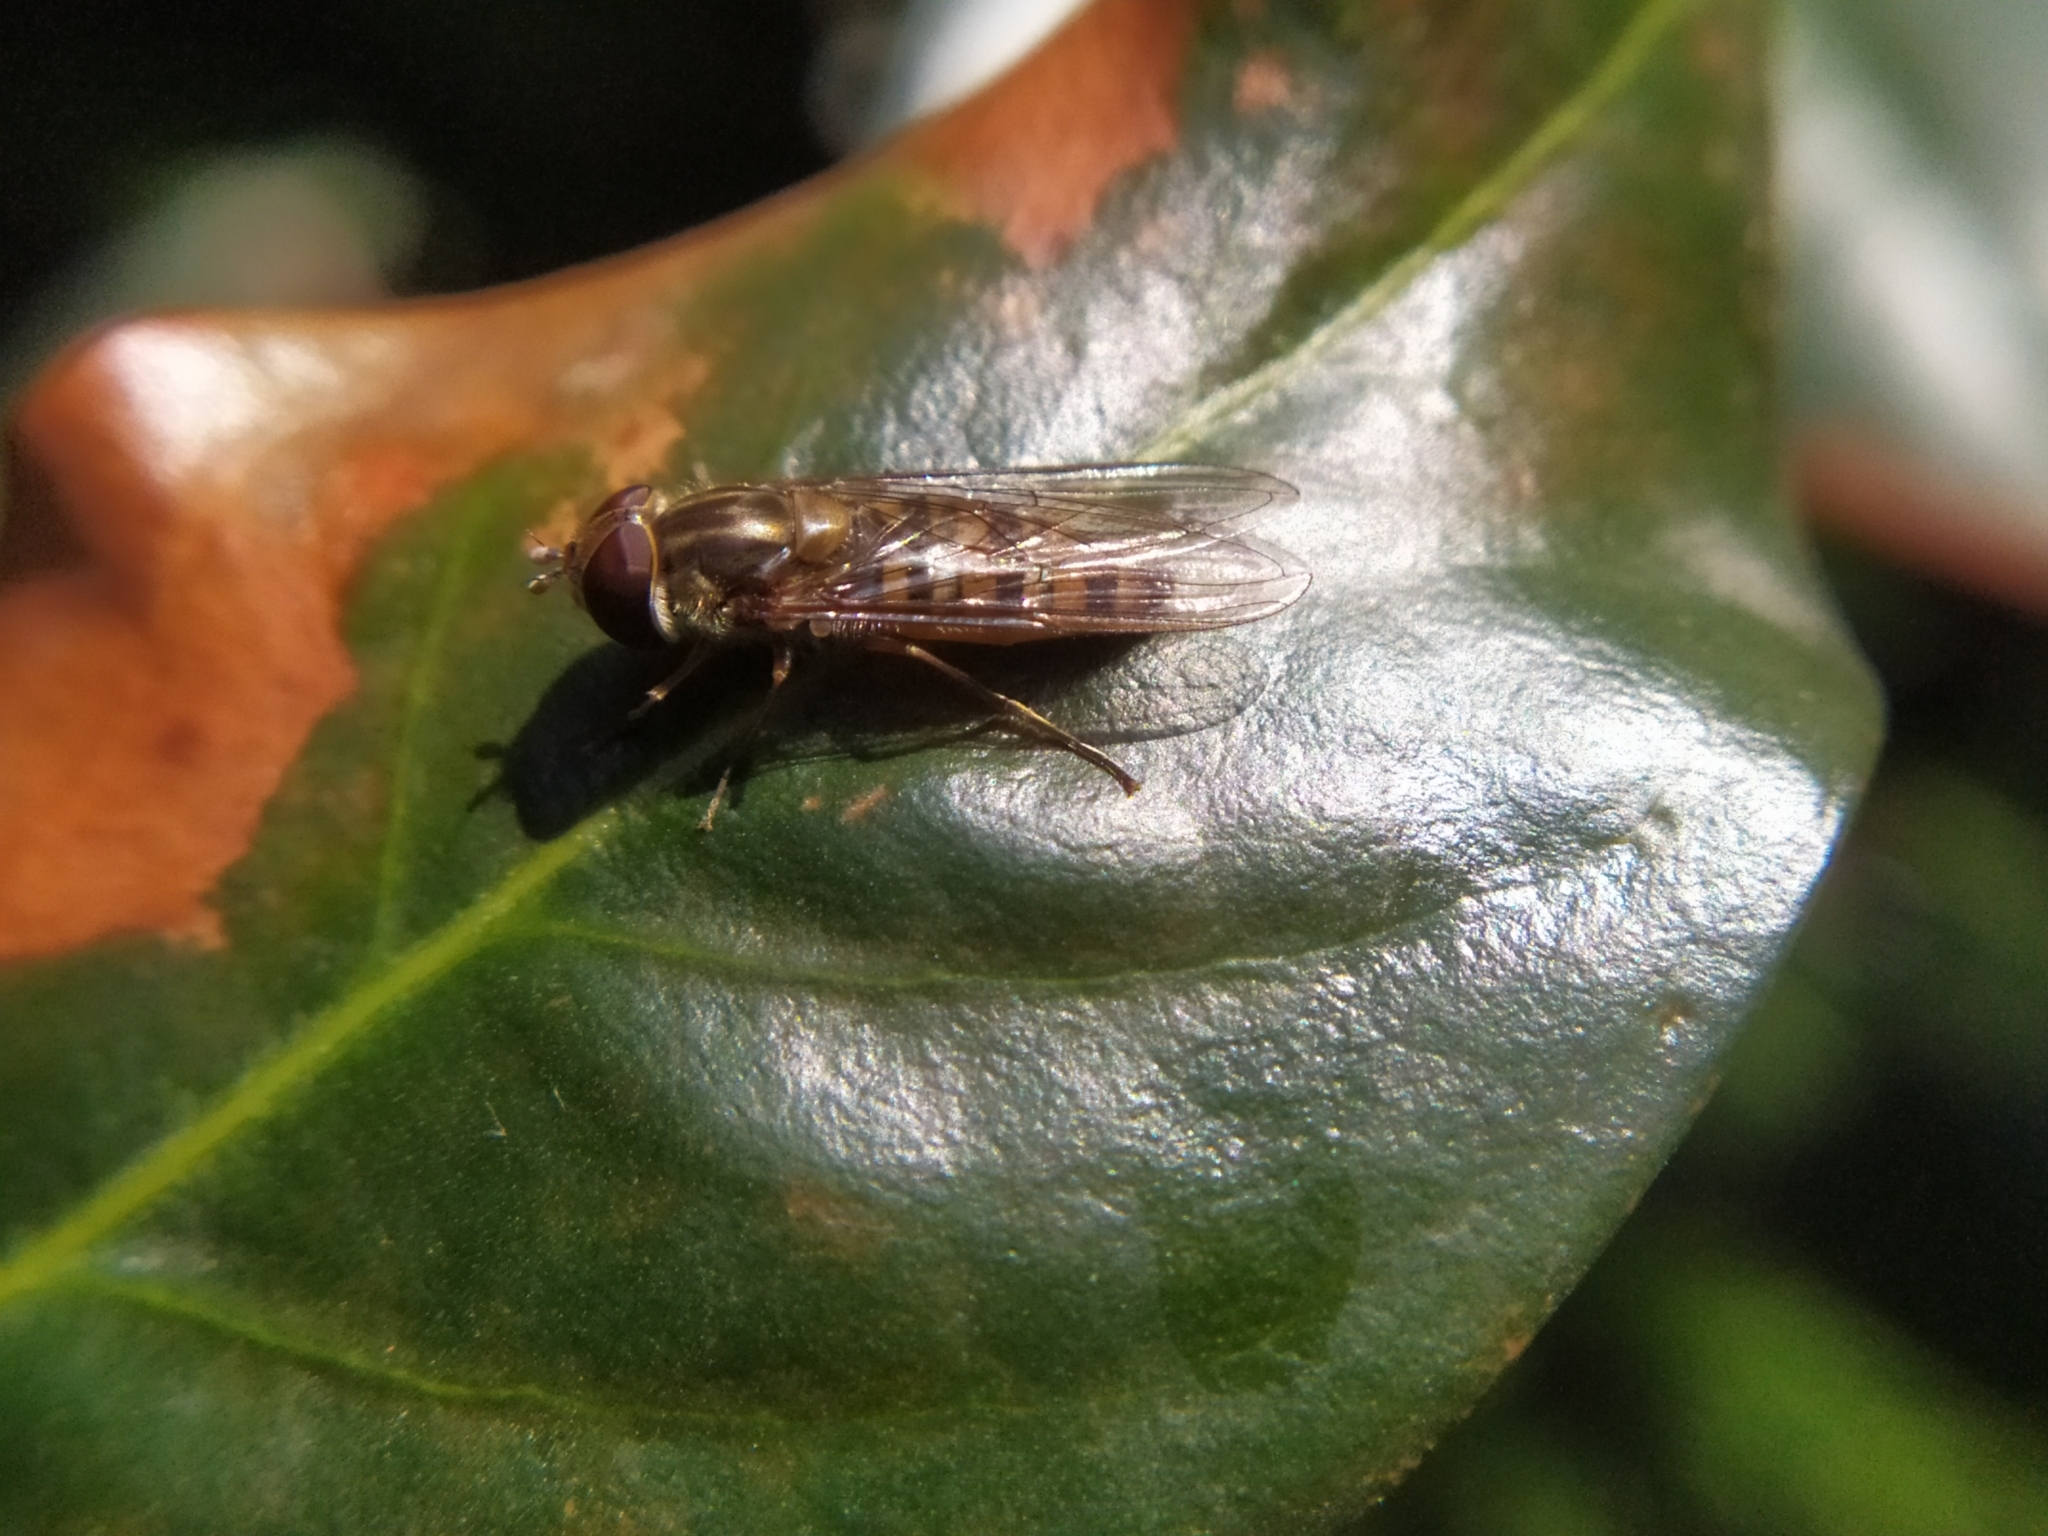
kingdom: Animalia
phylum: Arthropoda
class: Insecta
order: Diptera
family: Syrphidae
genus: Episyrphus
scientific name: Episyrphus balteatus
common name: Marmalade hoverfly
